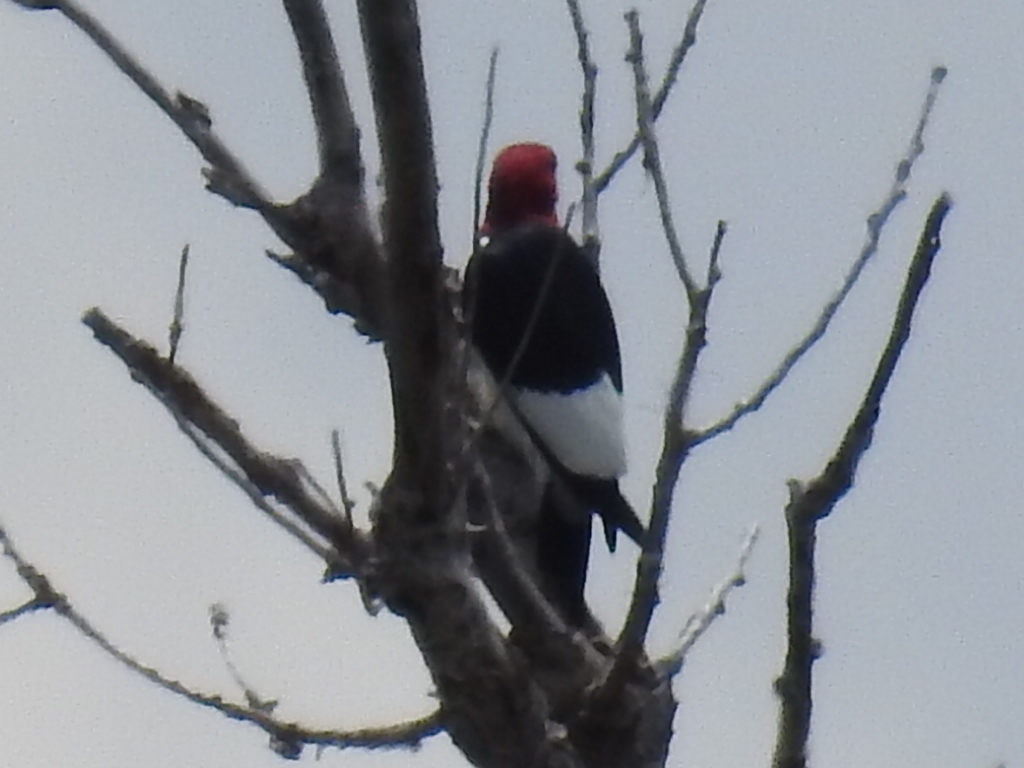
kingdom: Animalia
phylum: Chordata
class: Aves
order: Piciformes
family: Picidae
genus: Melanerpes
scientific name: Melanerpes erythrocephalus
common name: Red-headed woodpecker
